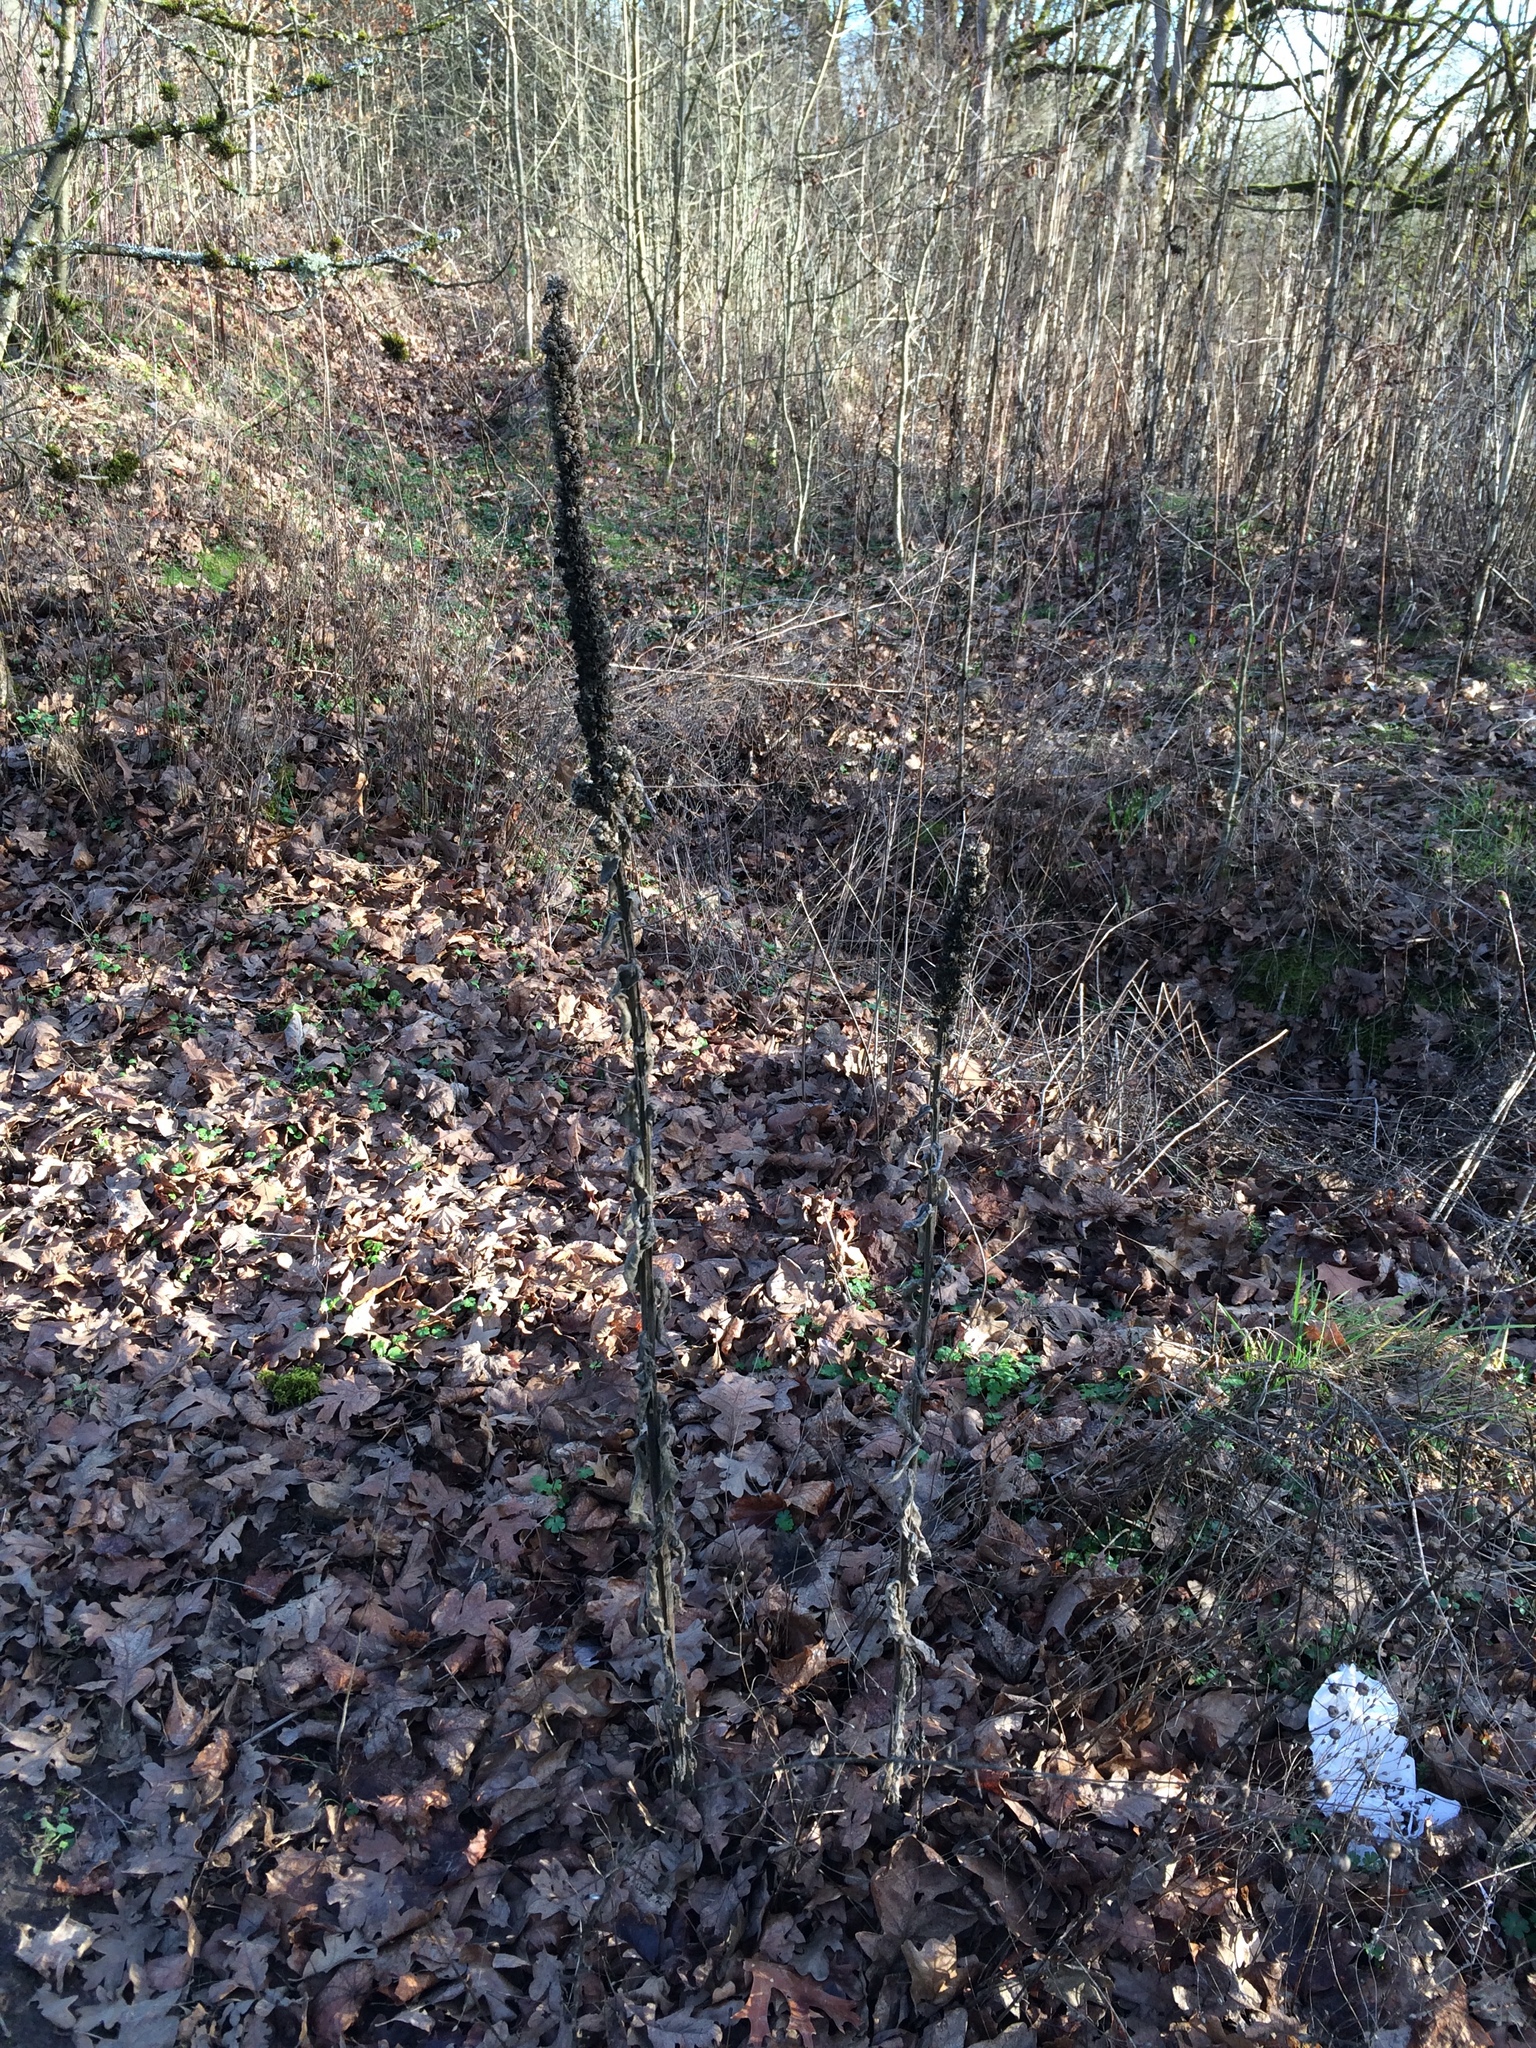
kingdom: Plantae
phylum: Tracheophyta
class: Magnoliopsida
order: Lamiales
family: Scrophulariaceae
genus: Verbascum
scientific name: Verbascum thapsus
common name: Common mullein
